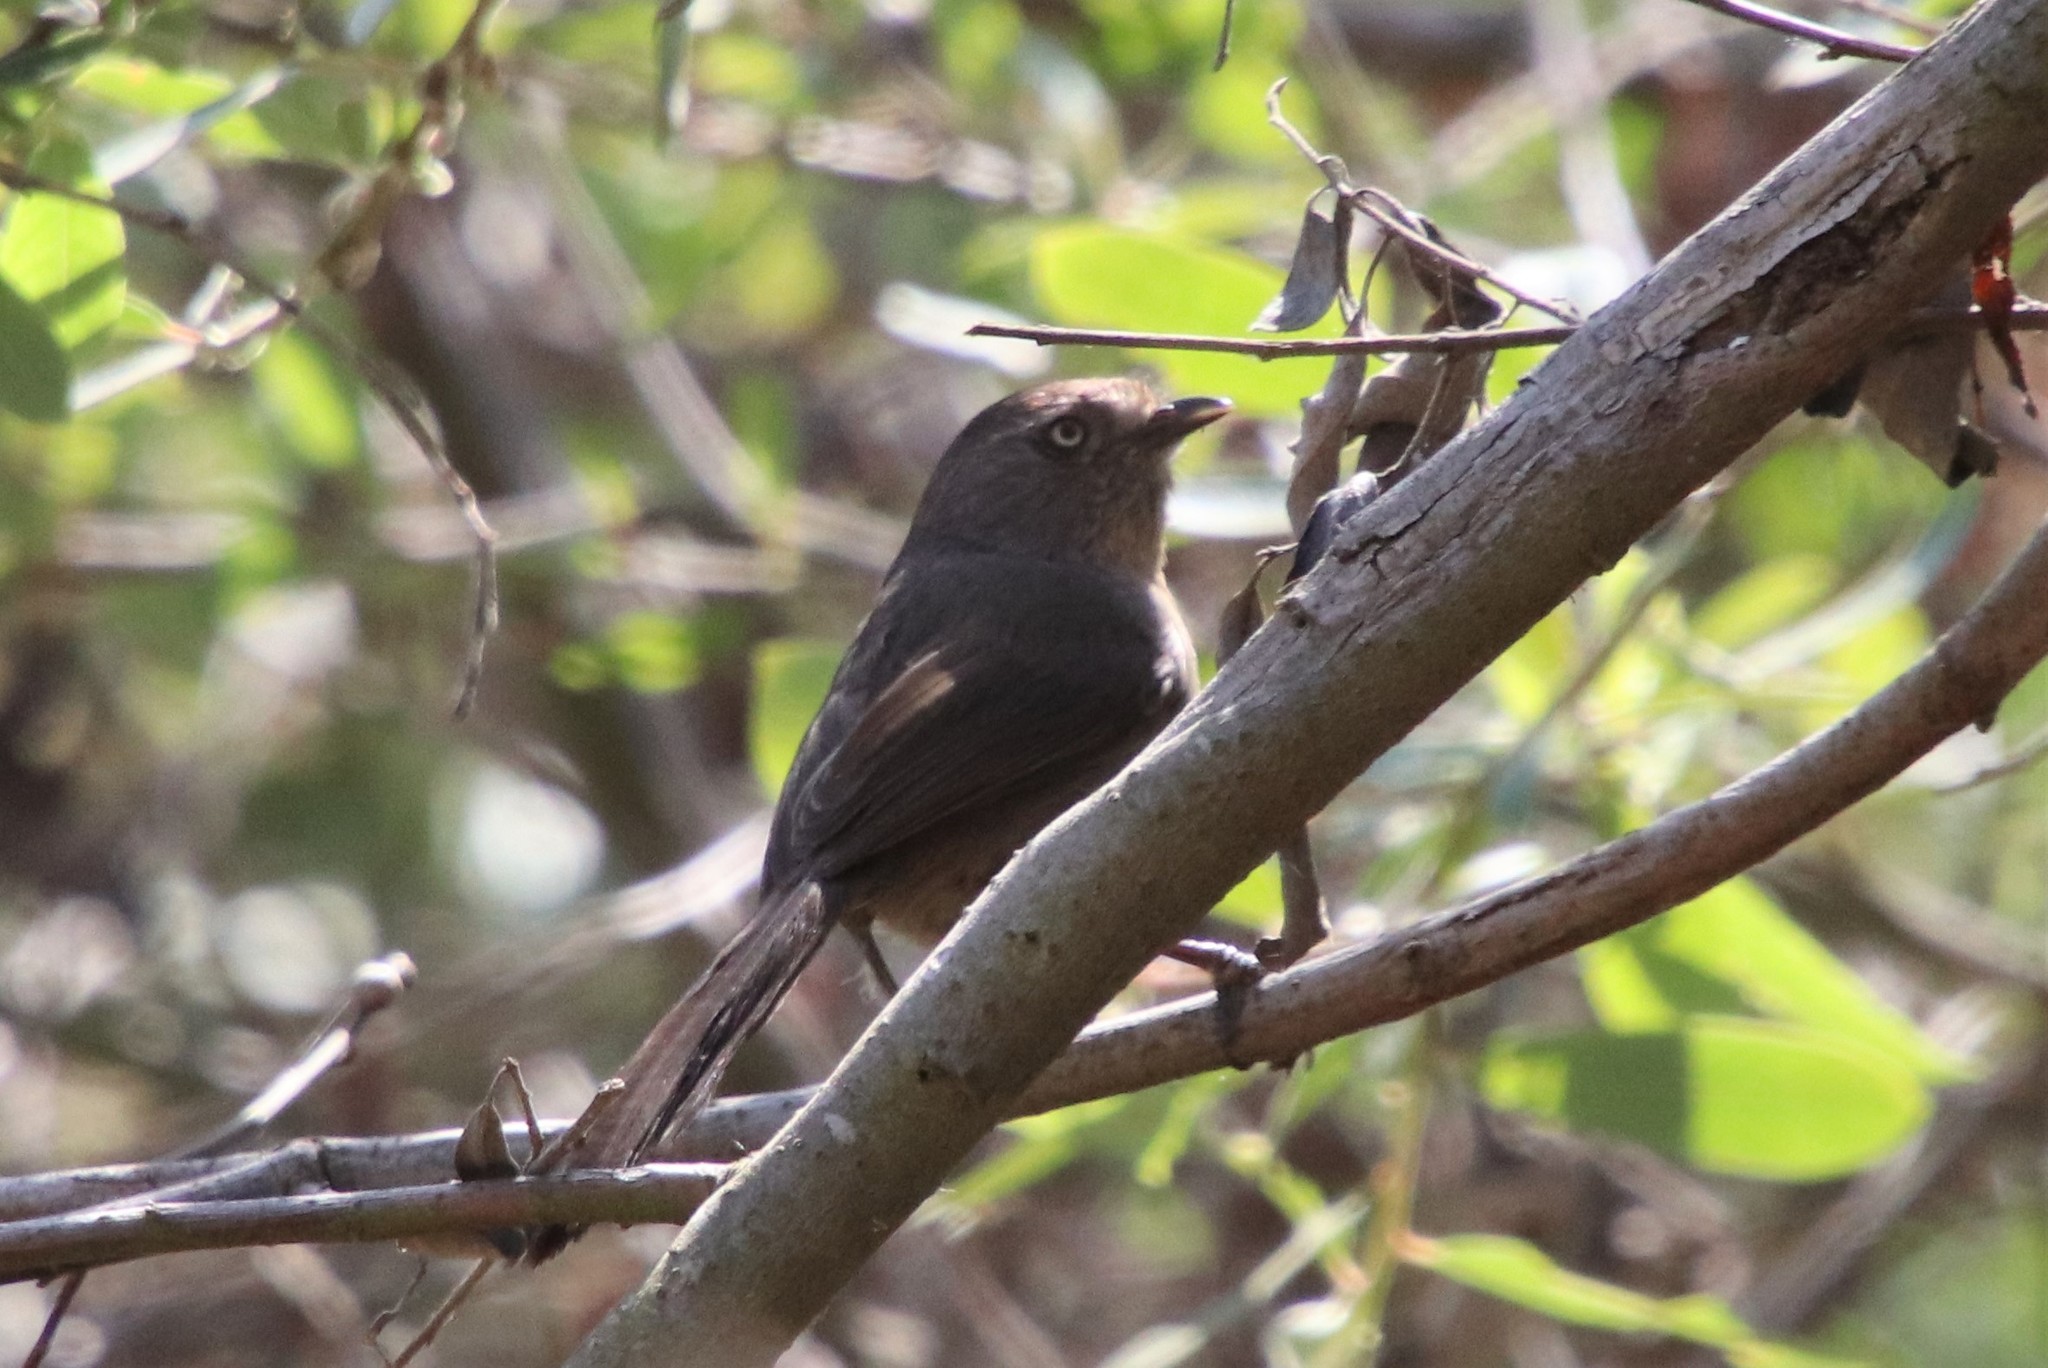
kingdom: Animalia
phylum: Chordata
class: Aves
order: Passeriformes
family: Sylviidae
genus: Chamaea
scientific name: Chamaea fasciata
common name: Wrentit
